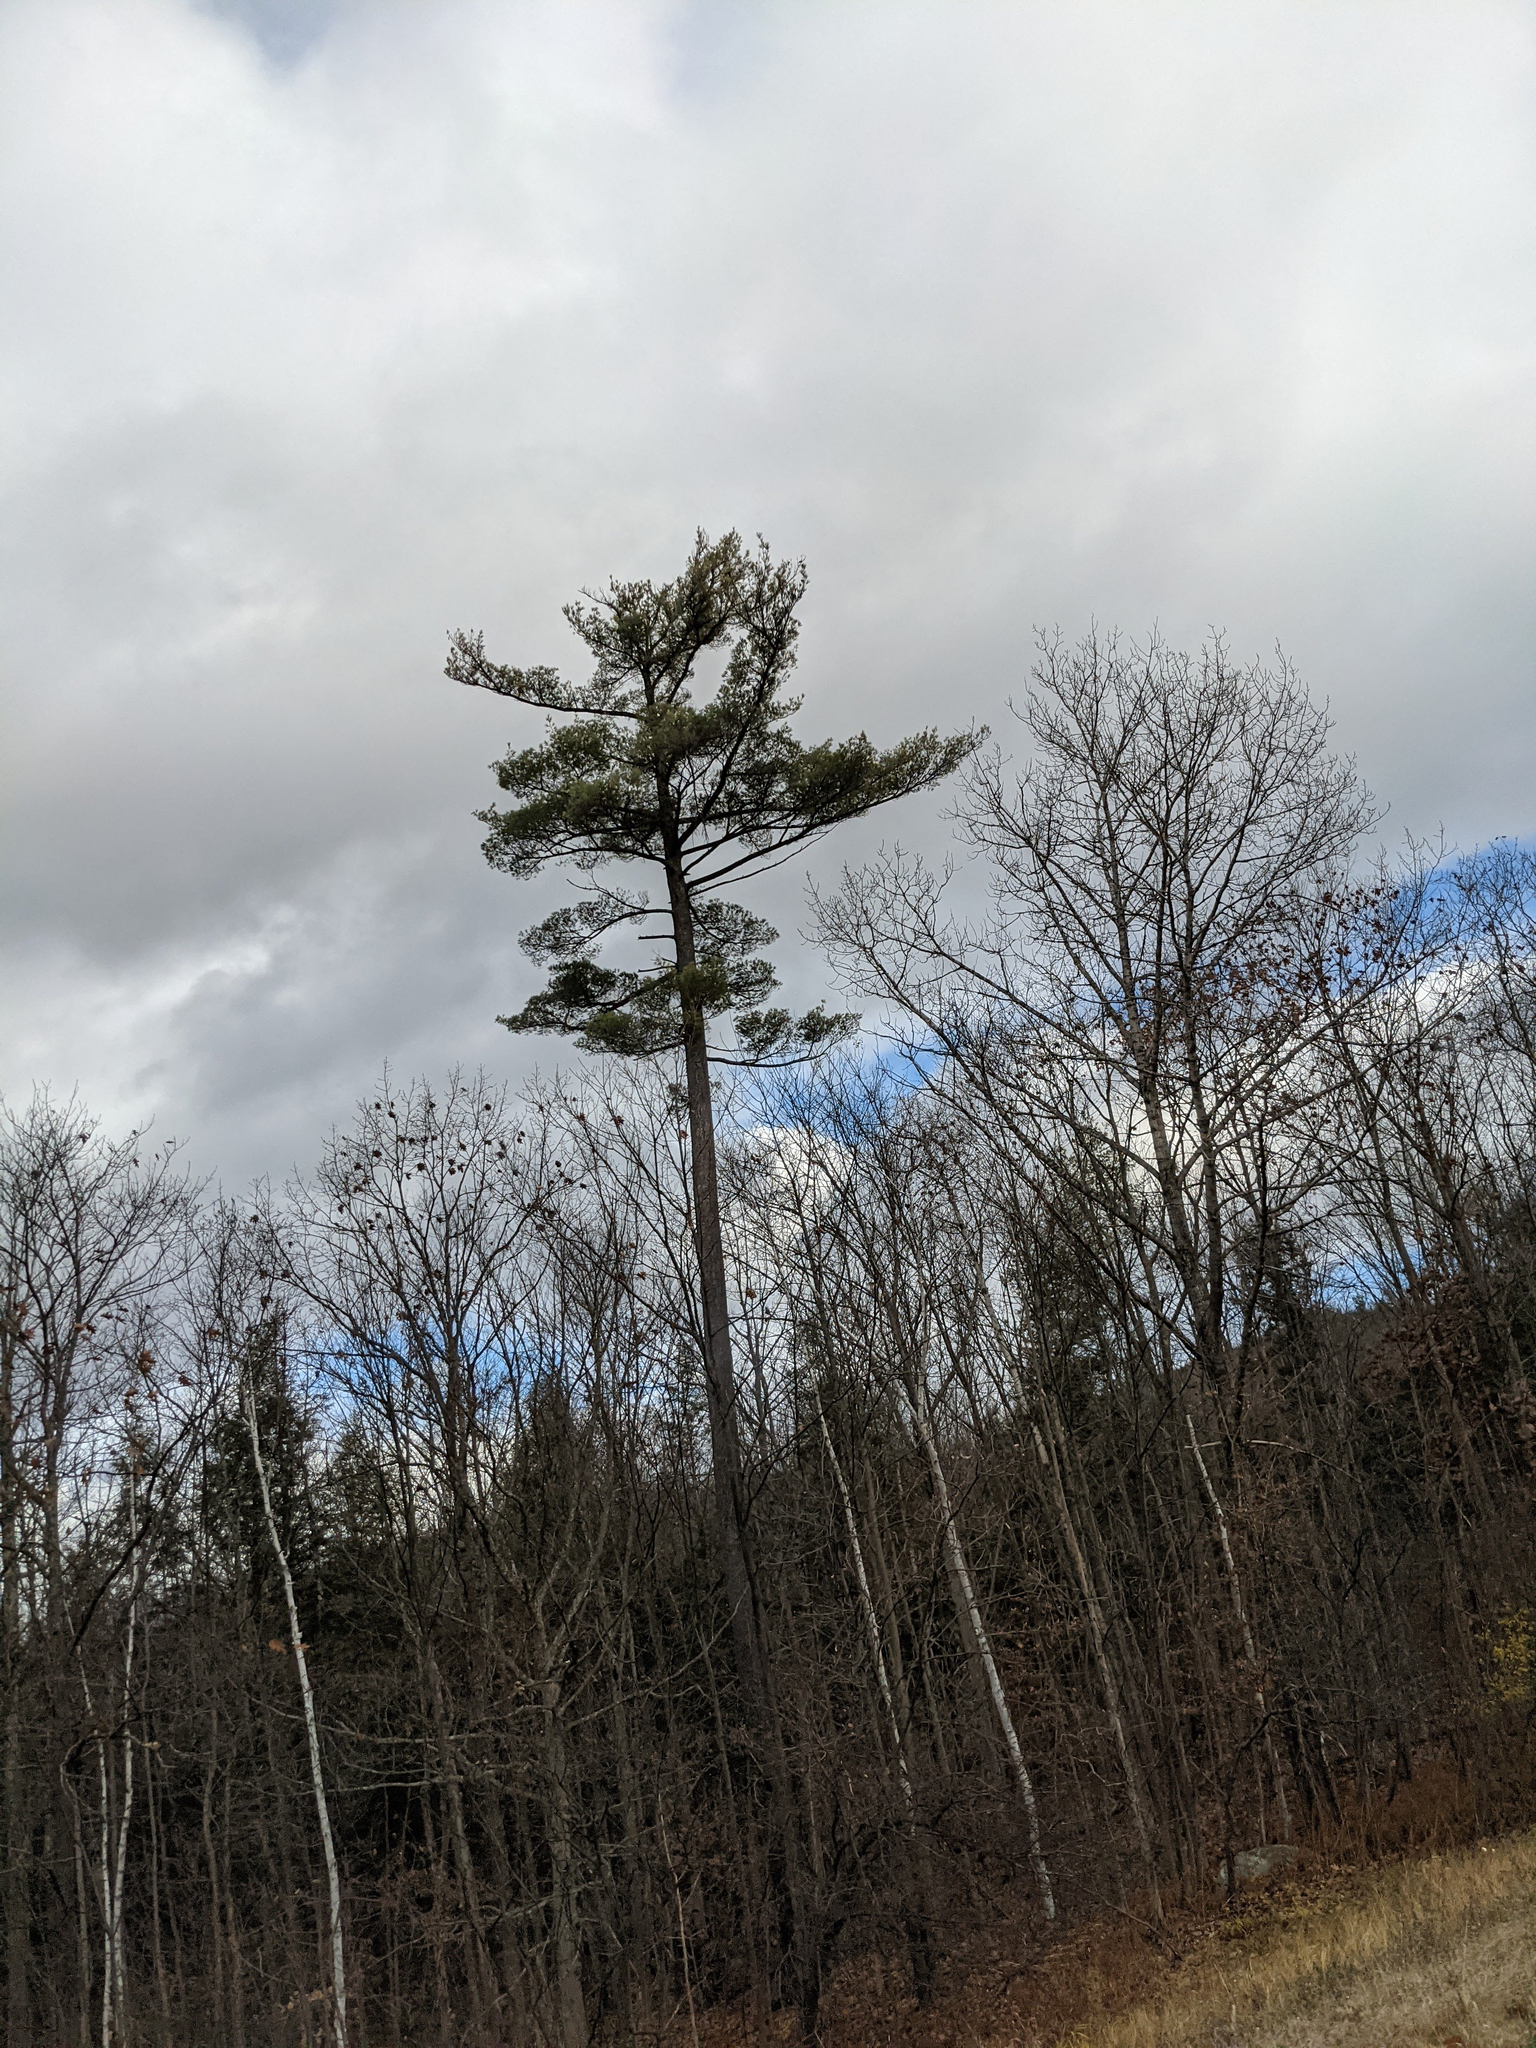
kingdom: Plantae
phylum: Tracheophyta
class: Pinopsida
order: Pinales
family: Pinaceae
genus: Pinus
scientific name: Pinus strobus
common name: Weymouth pine
